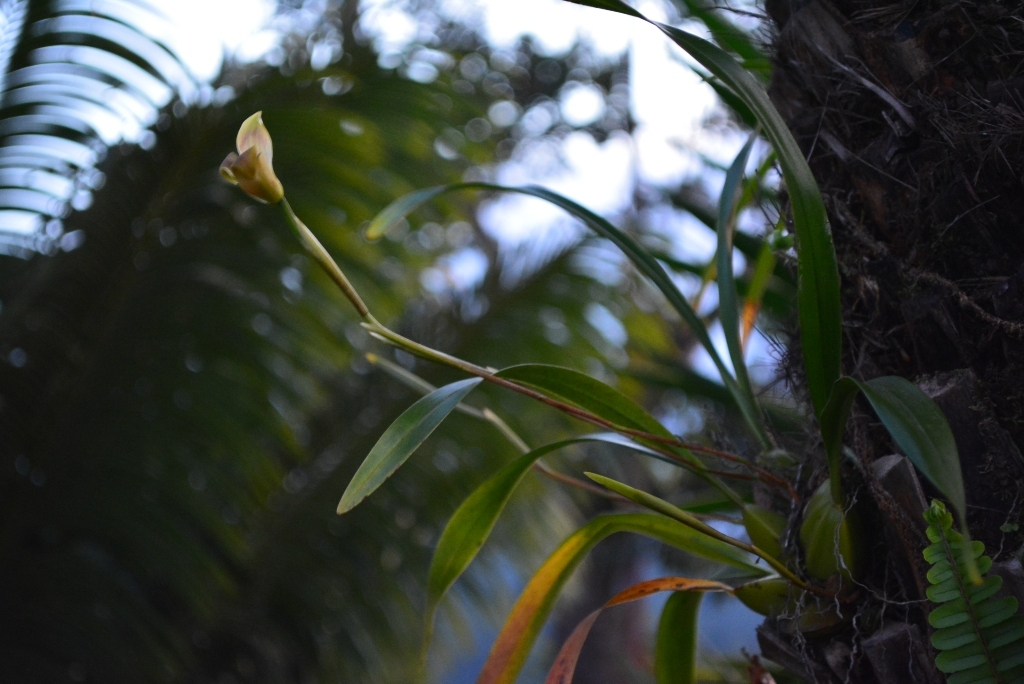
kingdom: Plantae
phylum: Tracheophyta
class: Liliopsida
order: Asparagales
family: Orchidaceae
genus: Maxillaria
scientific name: Maxillaria egertoniana
